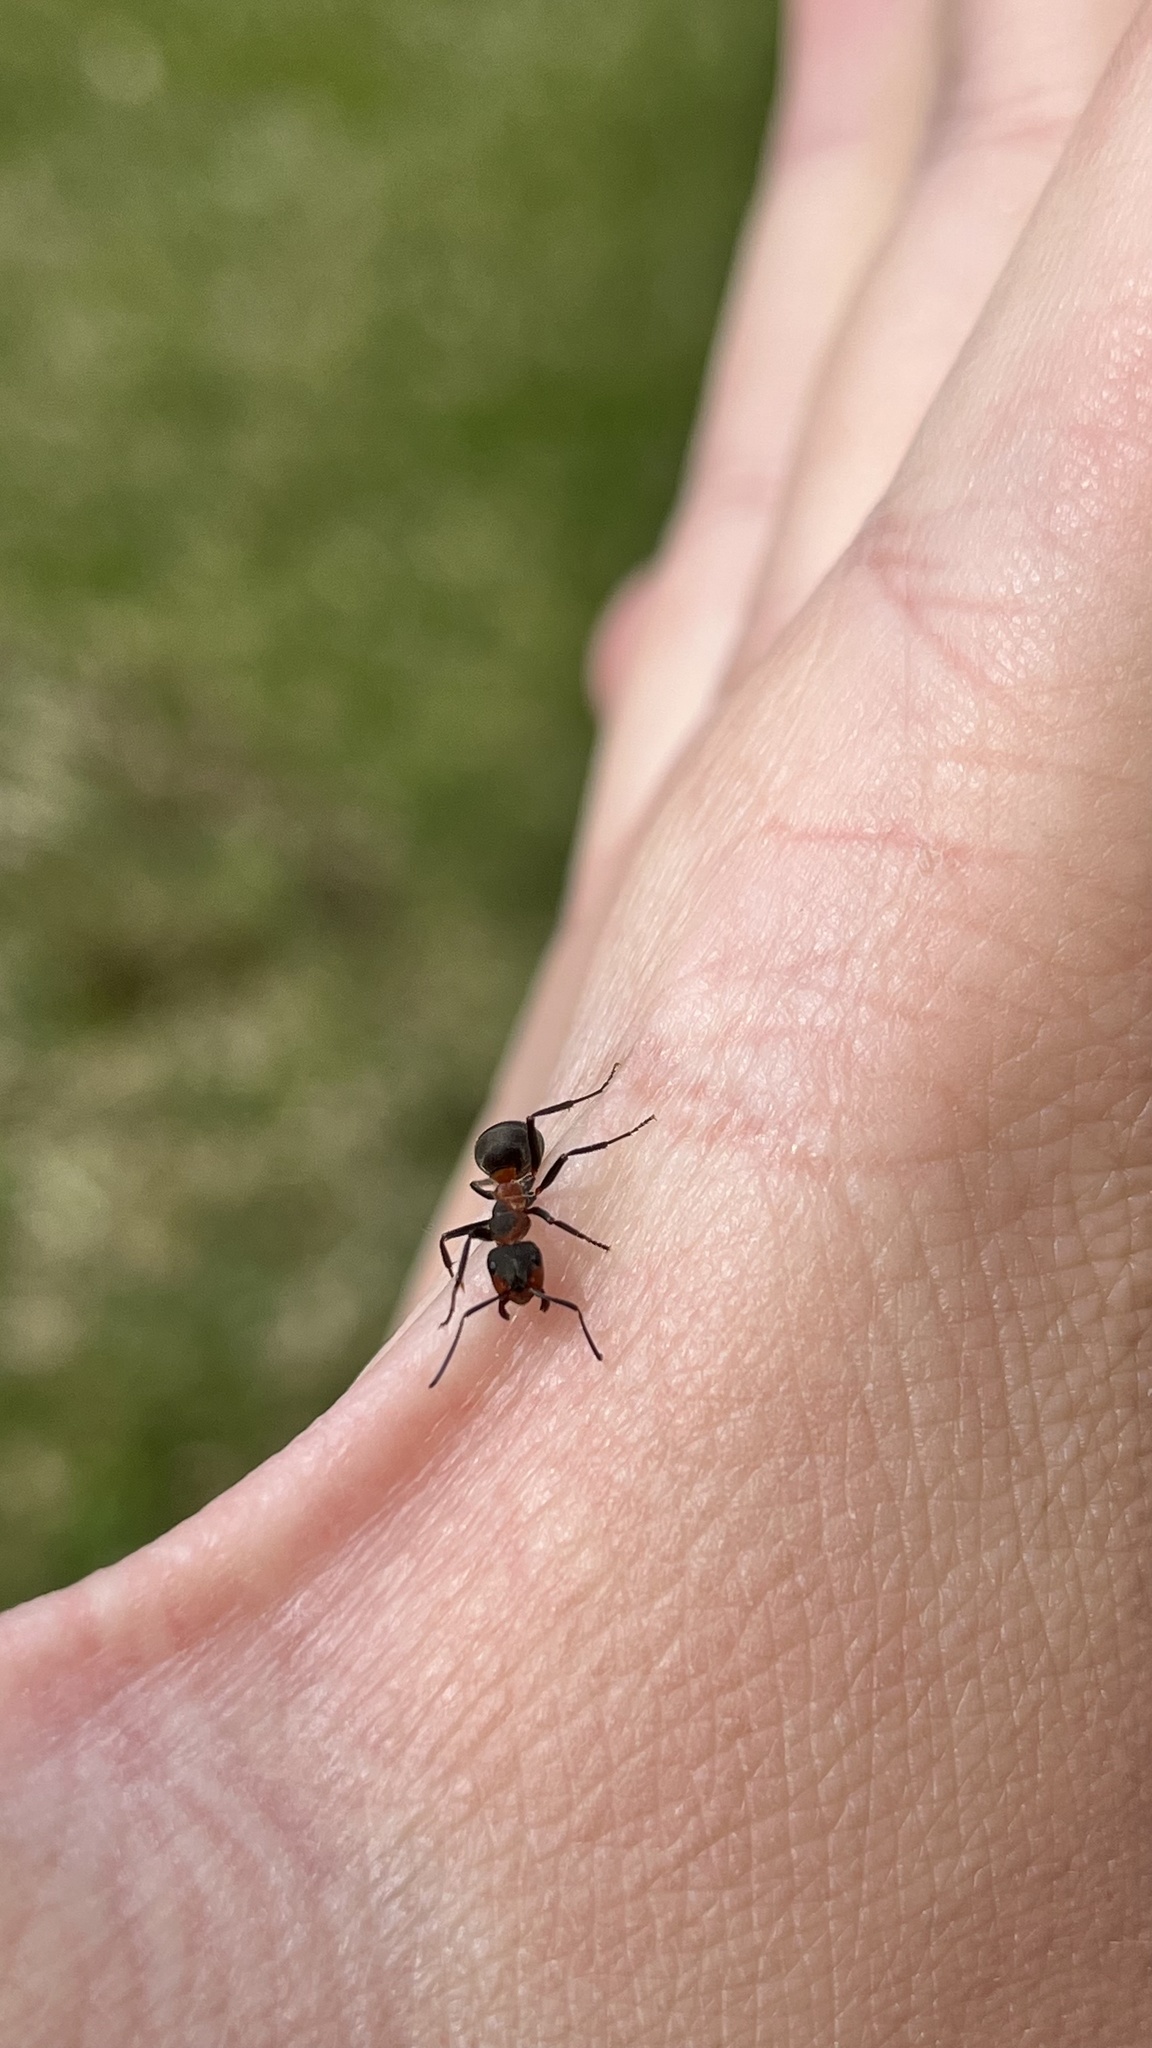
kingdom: Animalia
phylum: Arthropoda
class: Insecta
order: Hymenoptera
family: Formicidae
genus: Formica
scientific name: Formica pratensis
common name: European red wood ant
